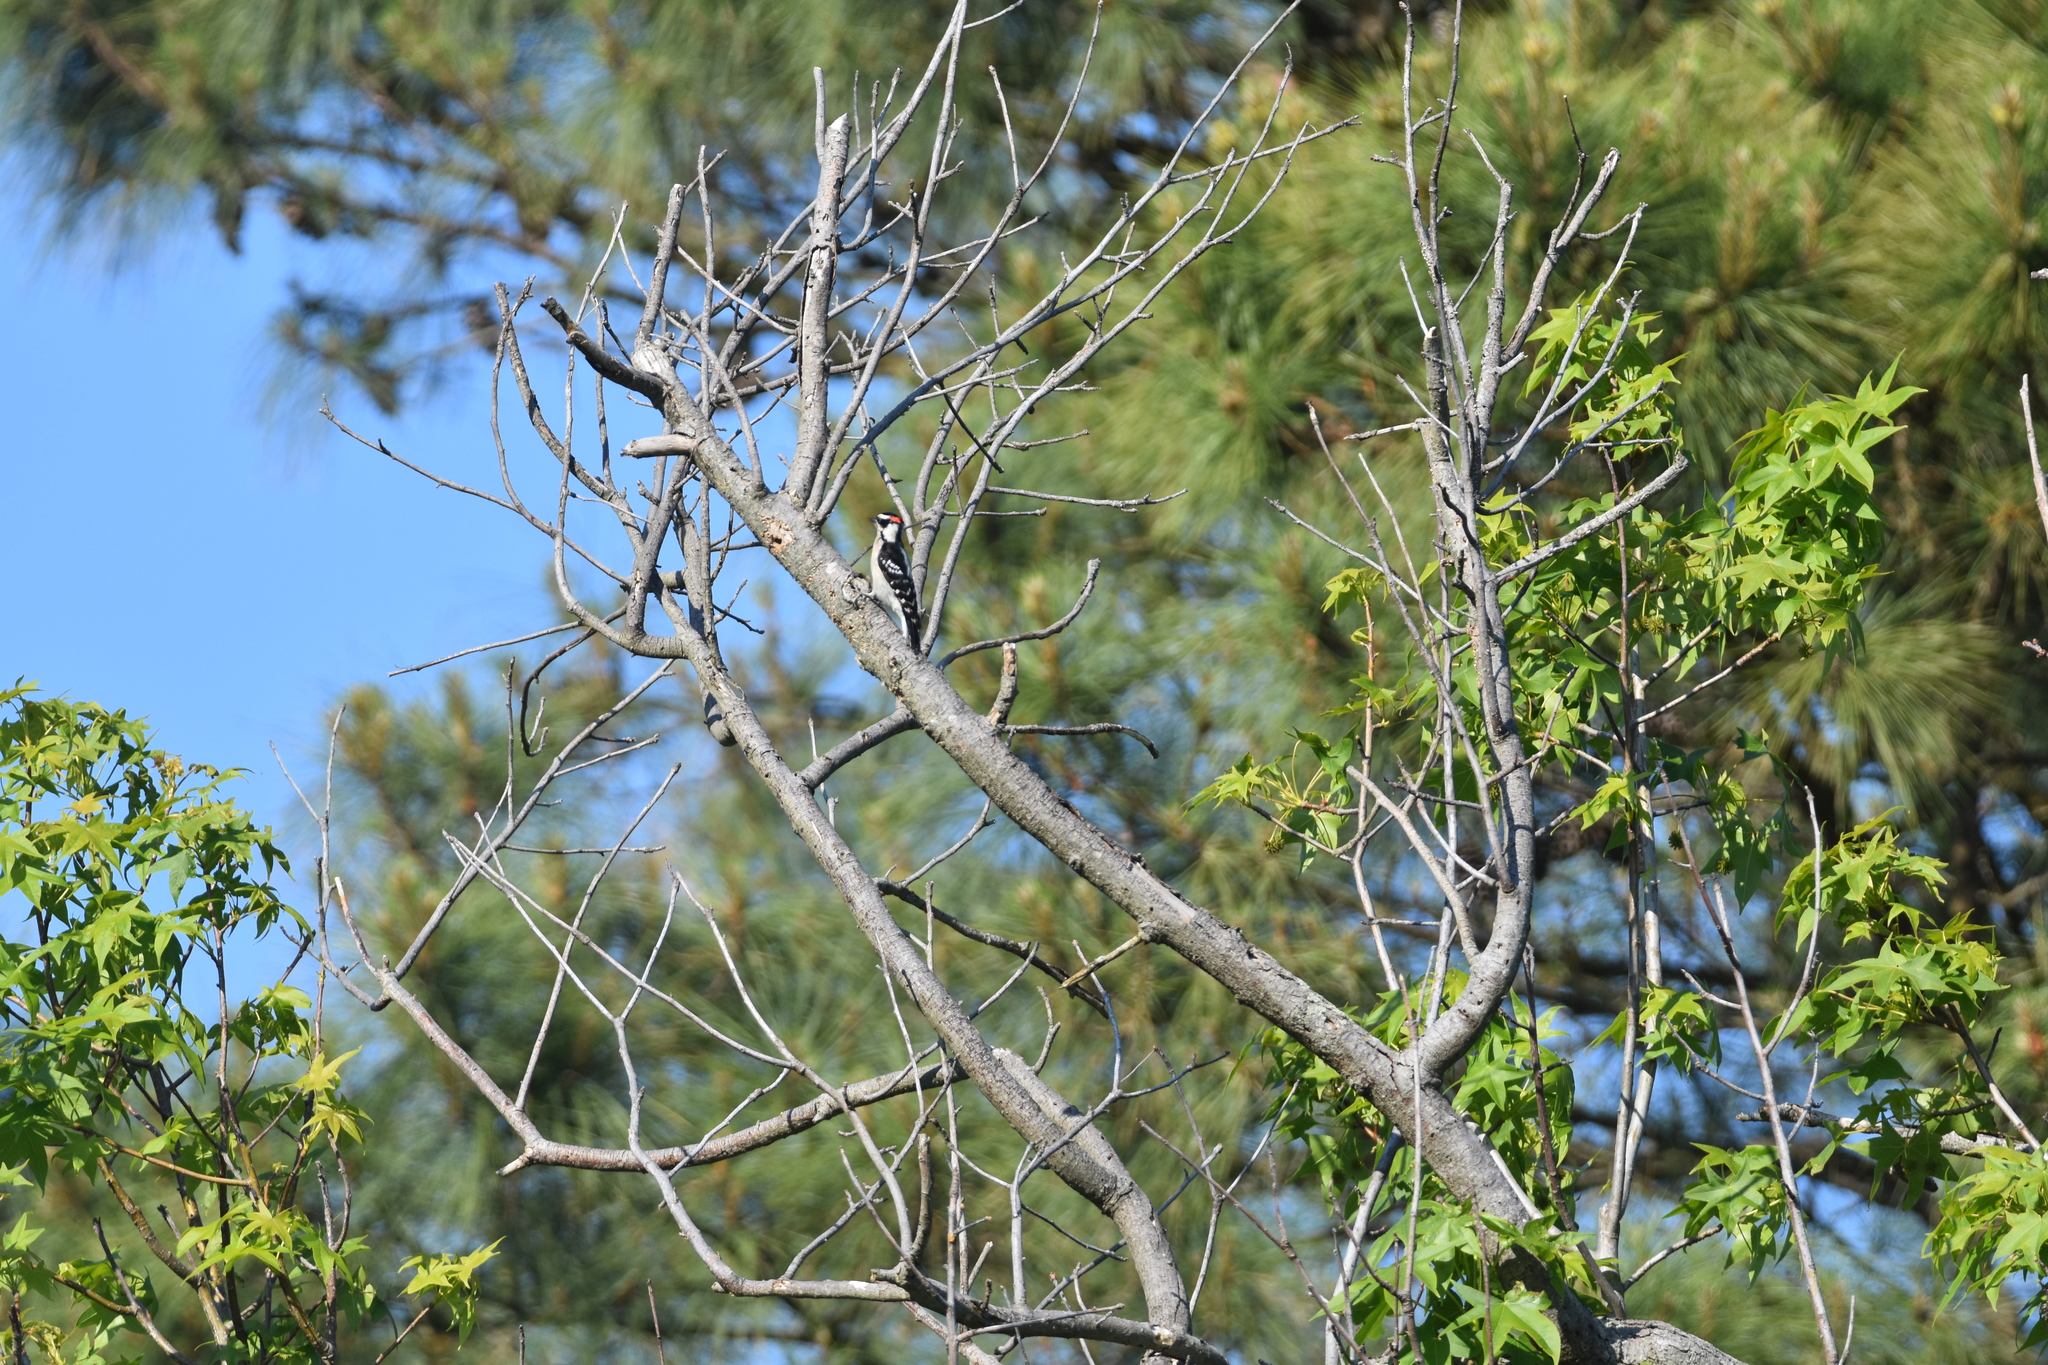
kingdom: Animalia
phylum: Chordata
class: Aves
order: Piciformes
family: Picidae
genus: Dryobates
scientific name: Dryobates pubescens
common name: Downy woodpecker
